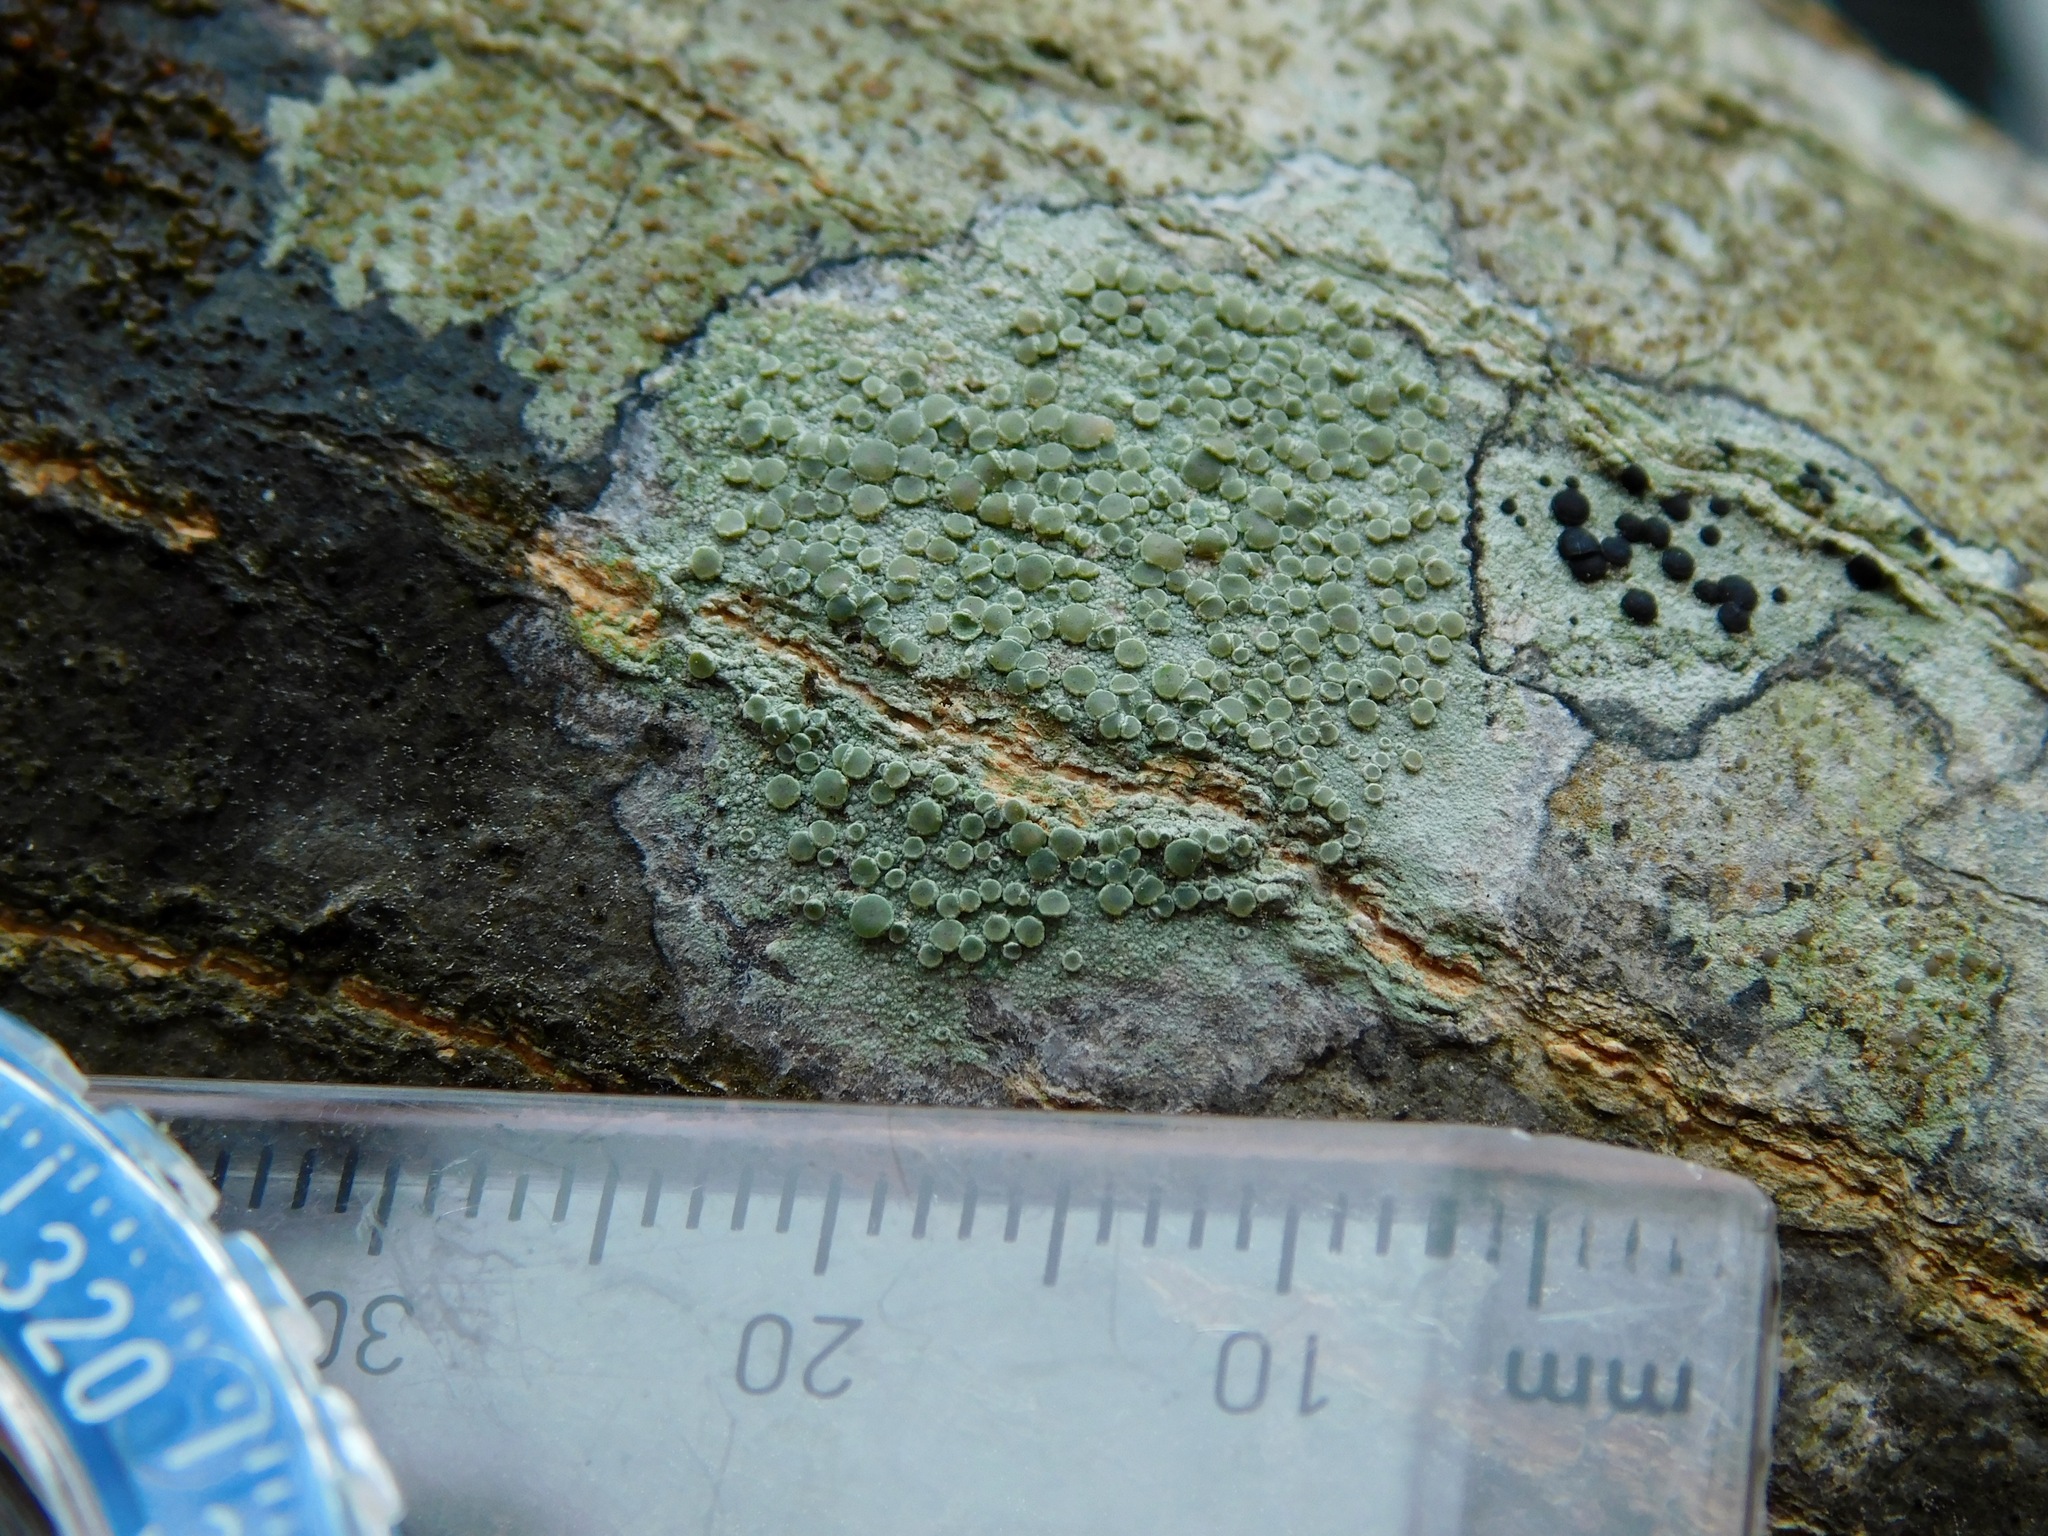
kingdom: Fungi
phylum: Ascomycota
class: Lecanoromycetes
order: Lecanorales
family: Lecanoraceae
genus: Lecanora
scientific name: Lecanora strobilina
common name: Mealy rim-lichen
